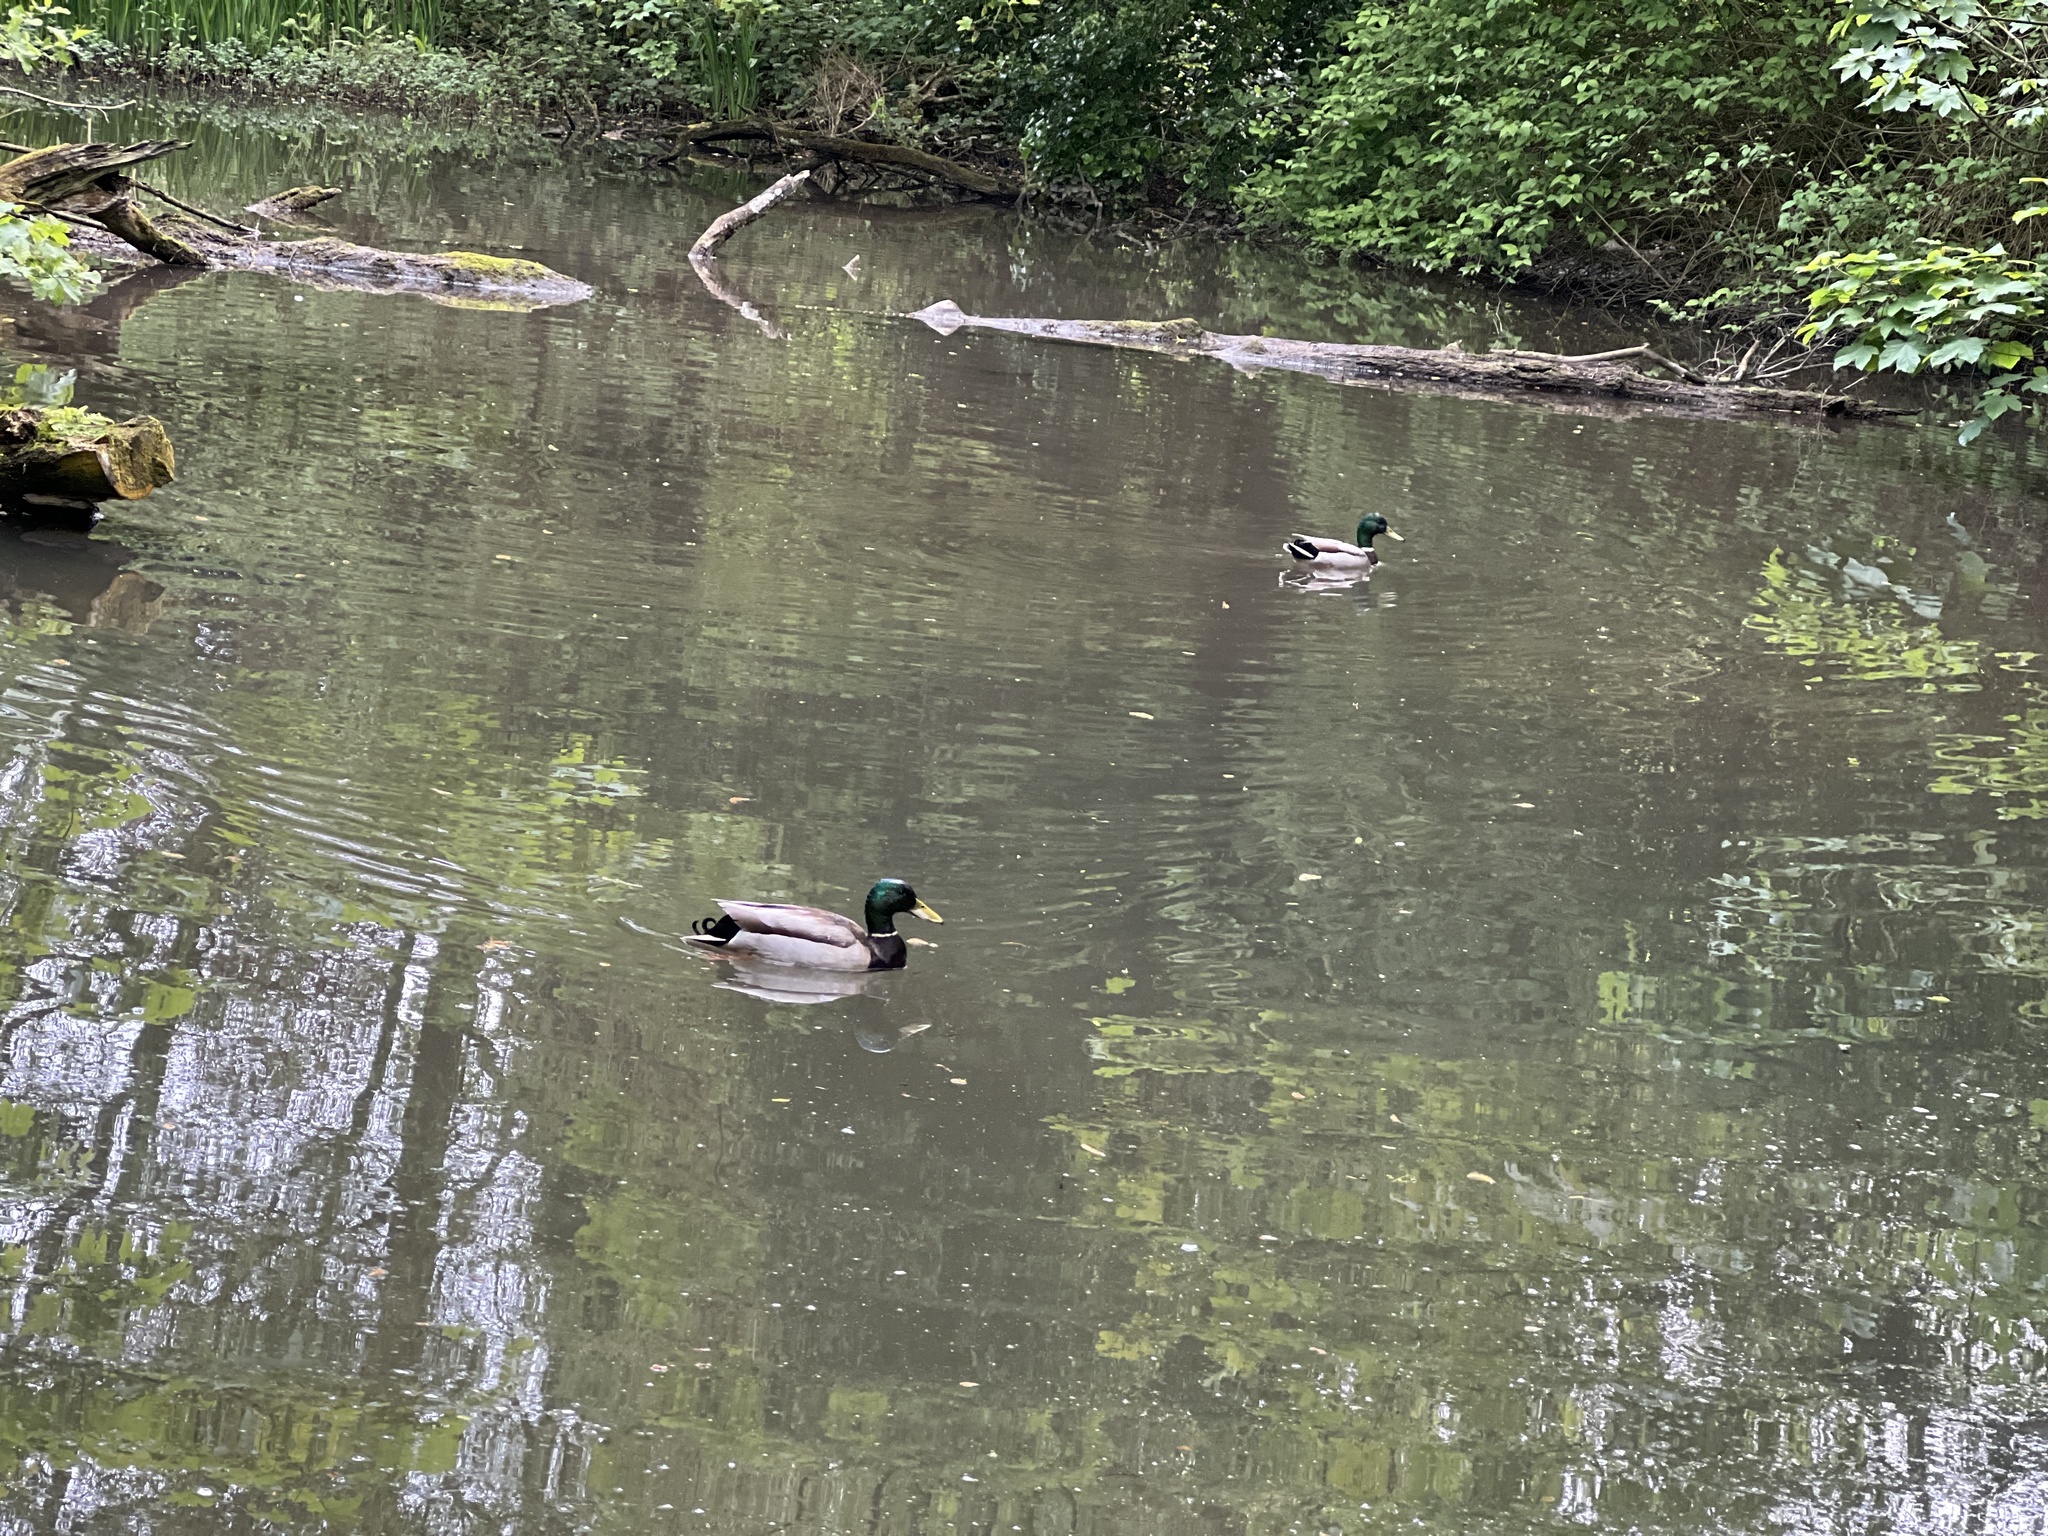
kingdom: Animalia
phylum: Chordata
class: Aves
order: Anseriformes
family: Anatidae
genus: Anas
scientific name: Anas platyrhynchos
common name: Mallard
